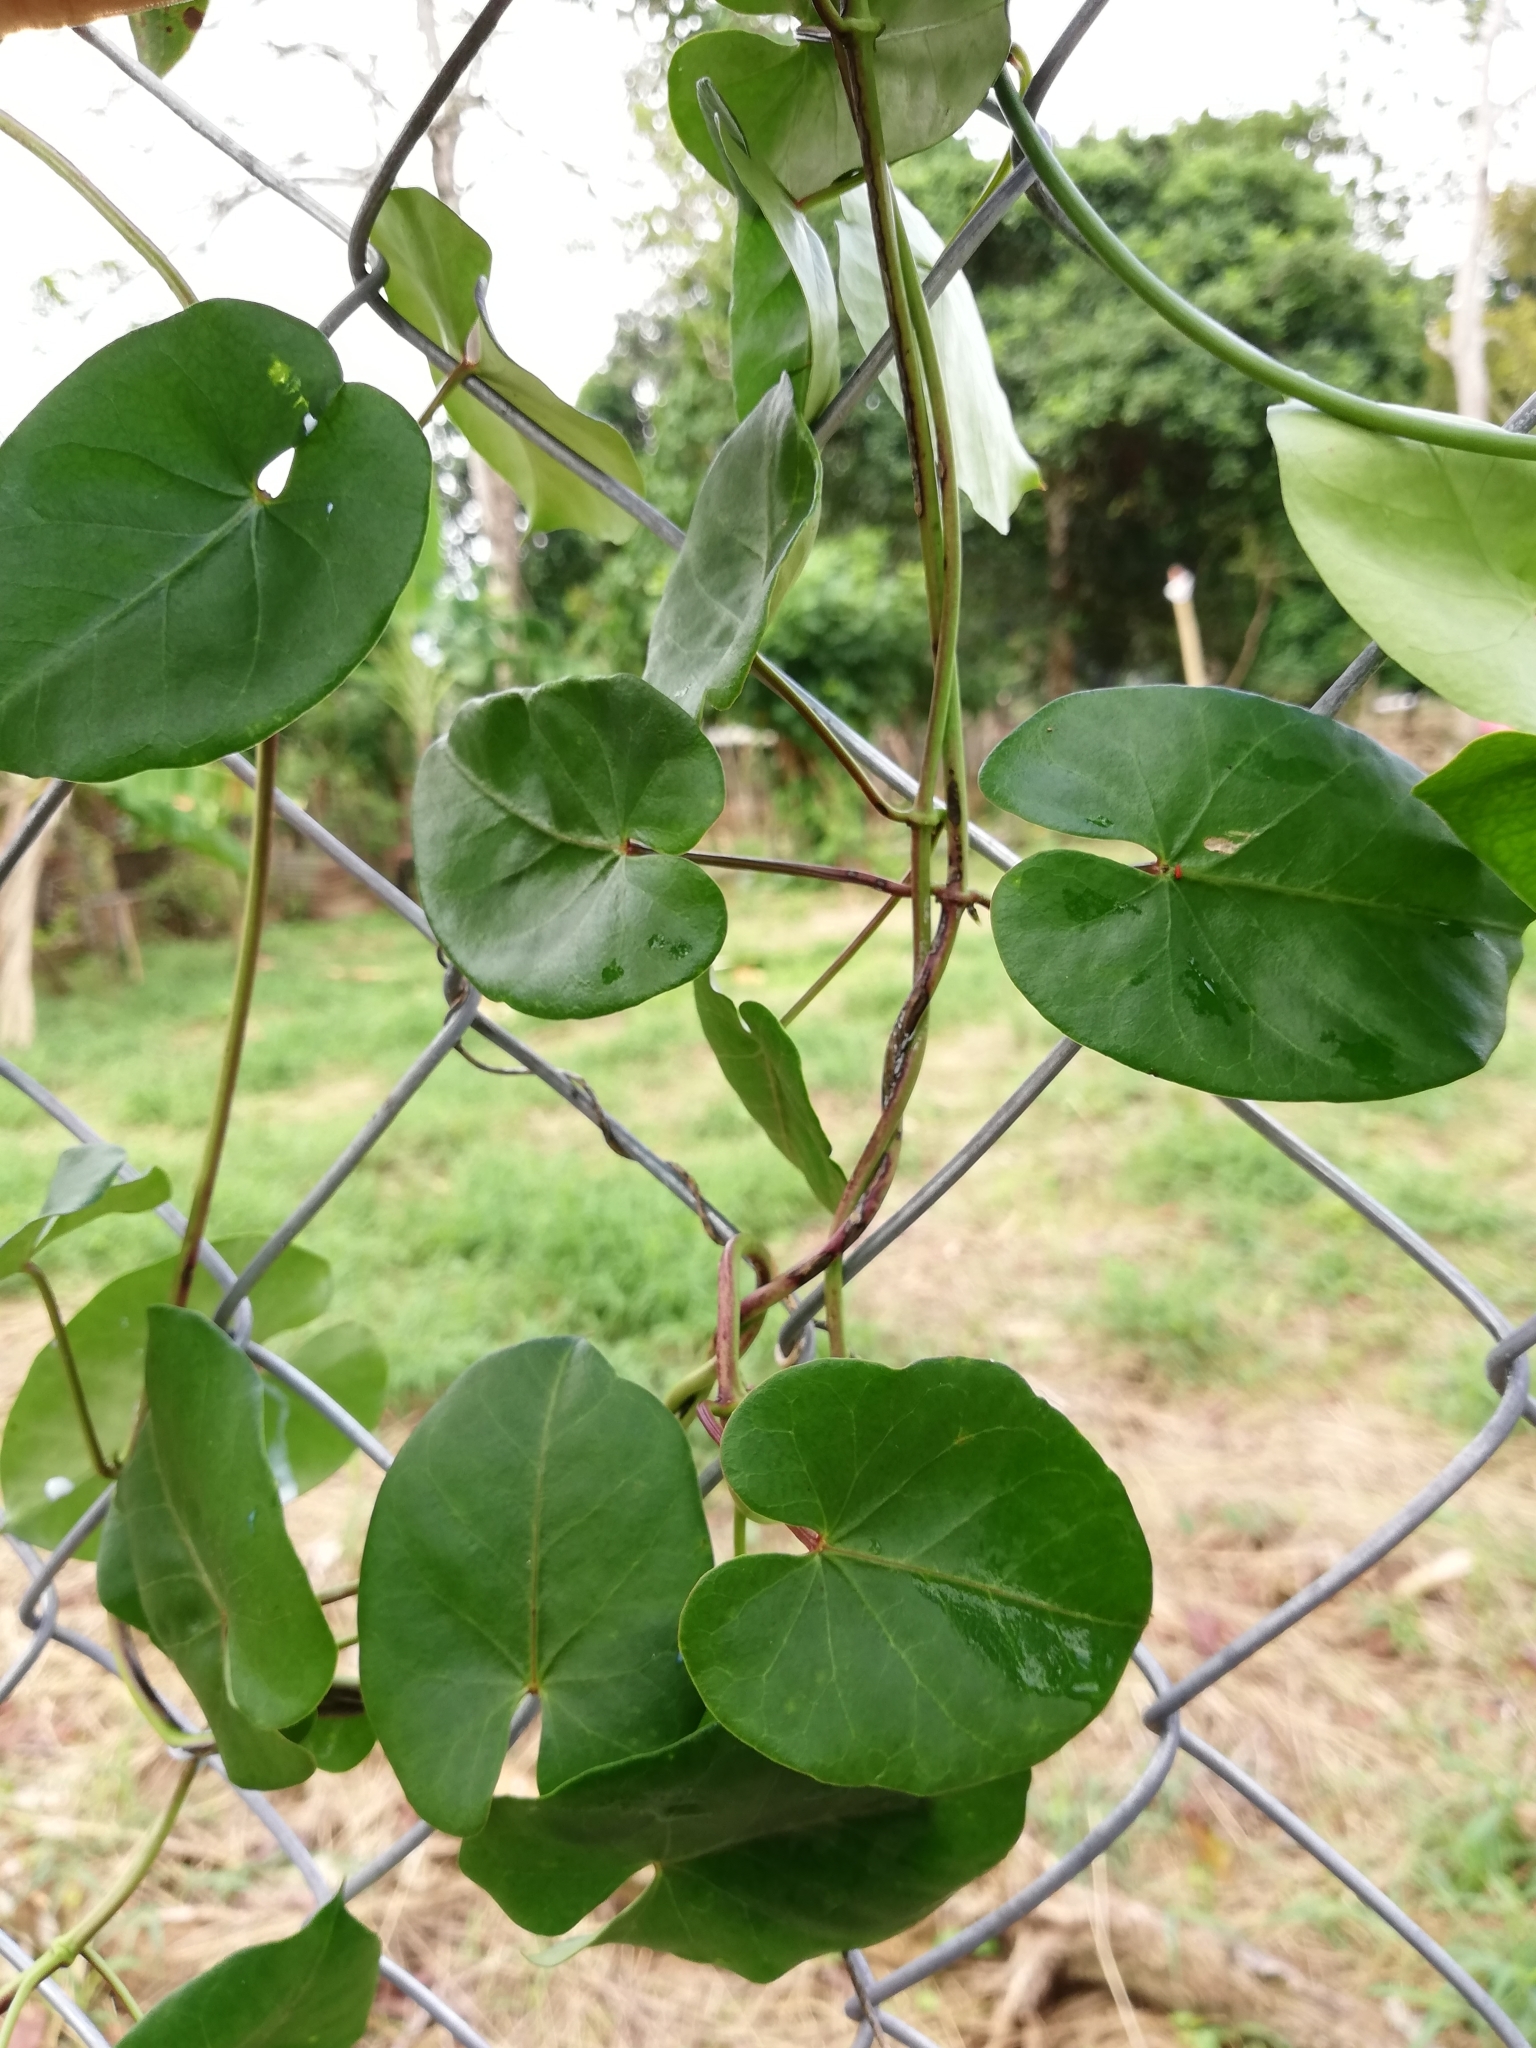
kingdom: Plantae
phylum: Tracheophyta
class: Magnoliopsida
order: Caryophyllales
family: Basellaceae
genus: Anredera
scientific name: Anredera cordifolia
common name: Heartleaf madeiravine
